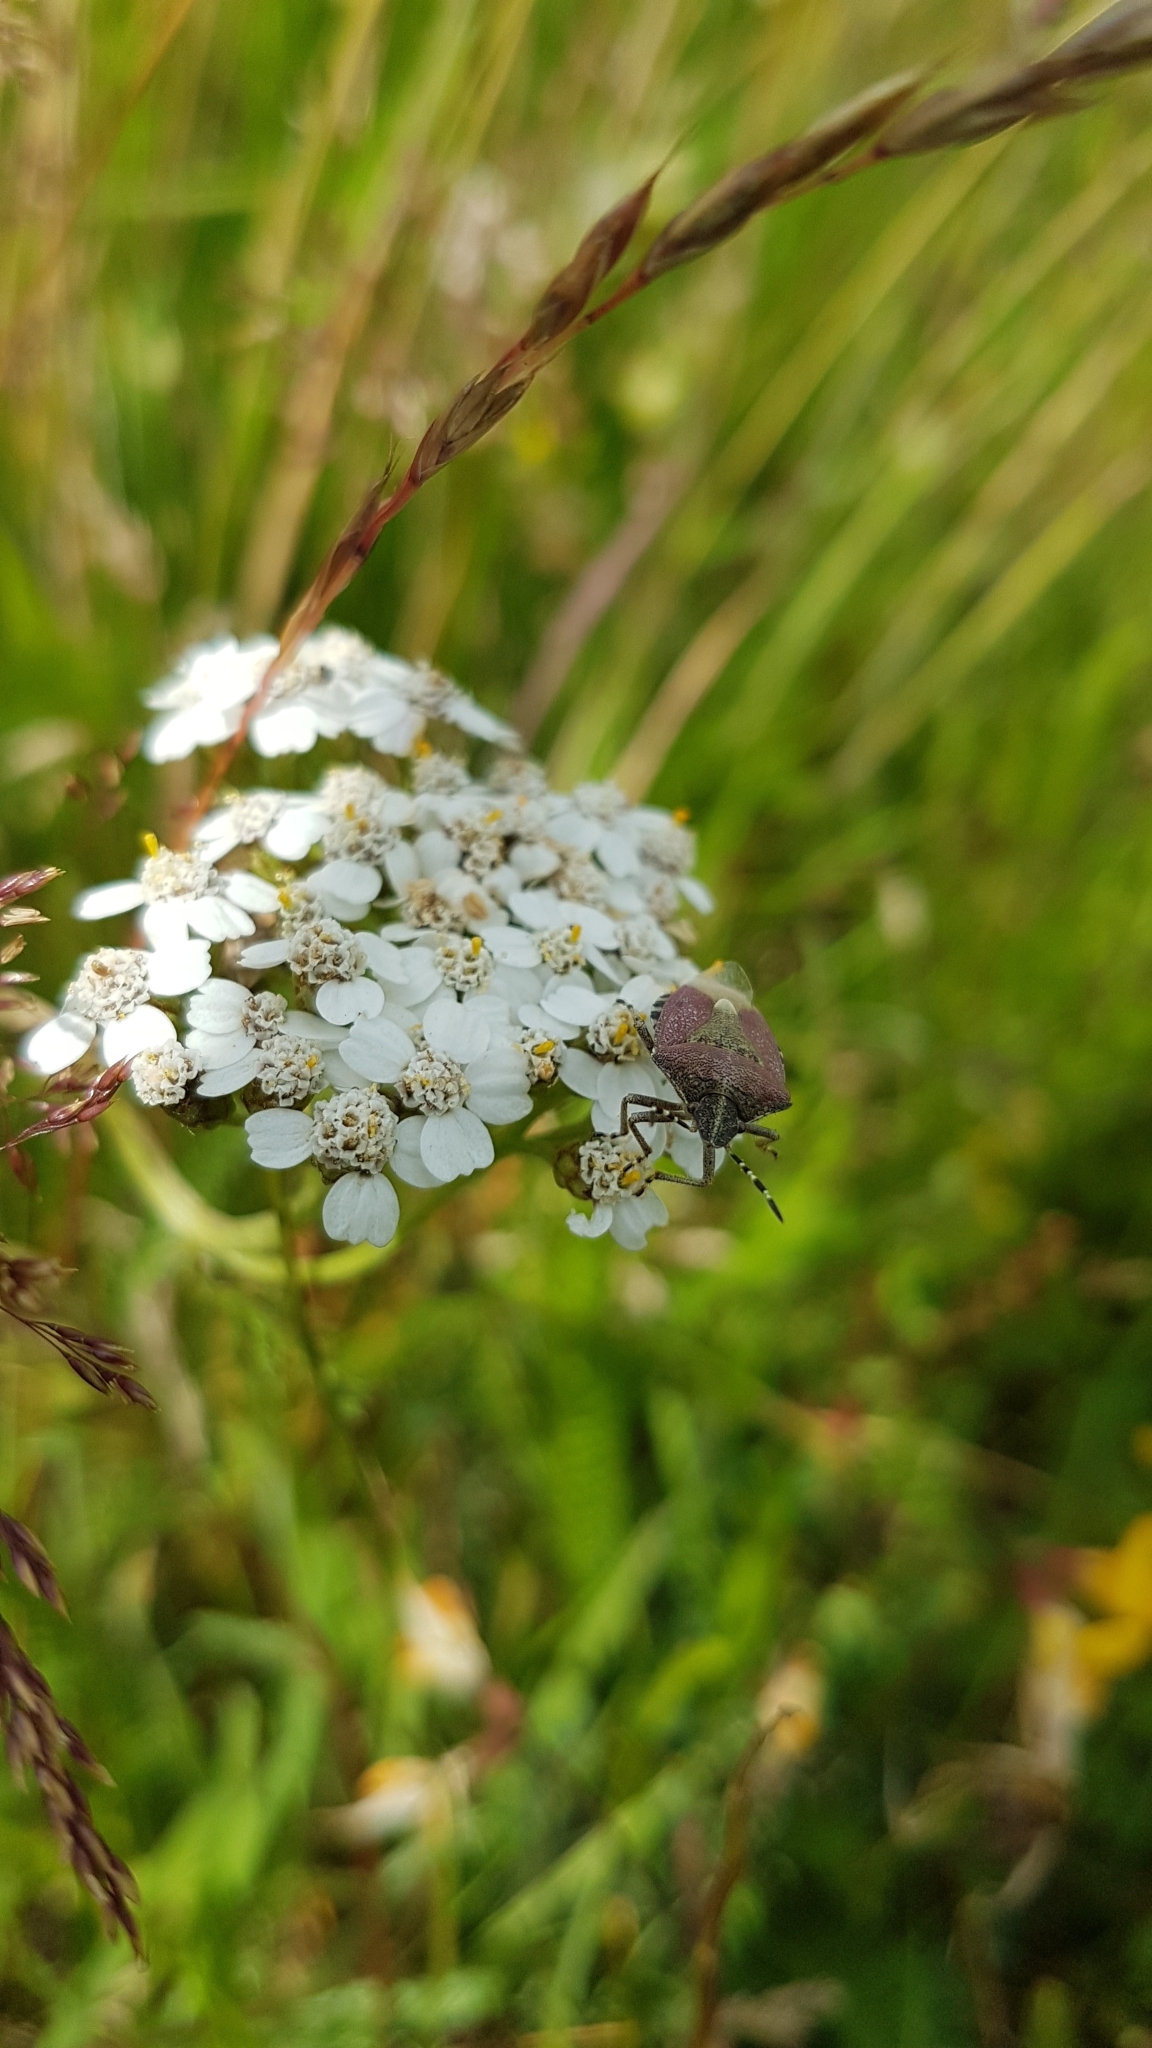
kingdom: Animalia
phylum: Arthropoda
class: Insecta
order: Hemiptera
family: Pentatomidae
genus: Dolycoris
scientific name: Dolycoris baccarum
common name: Sloe bug
